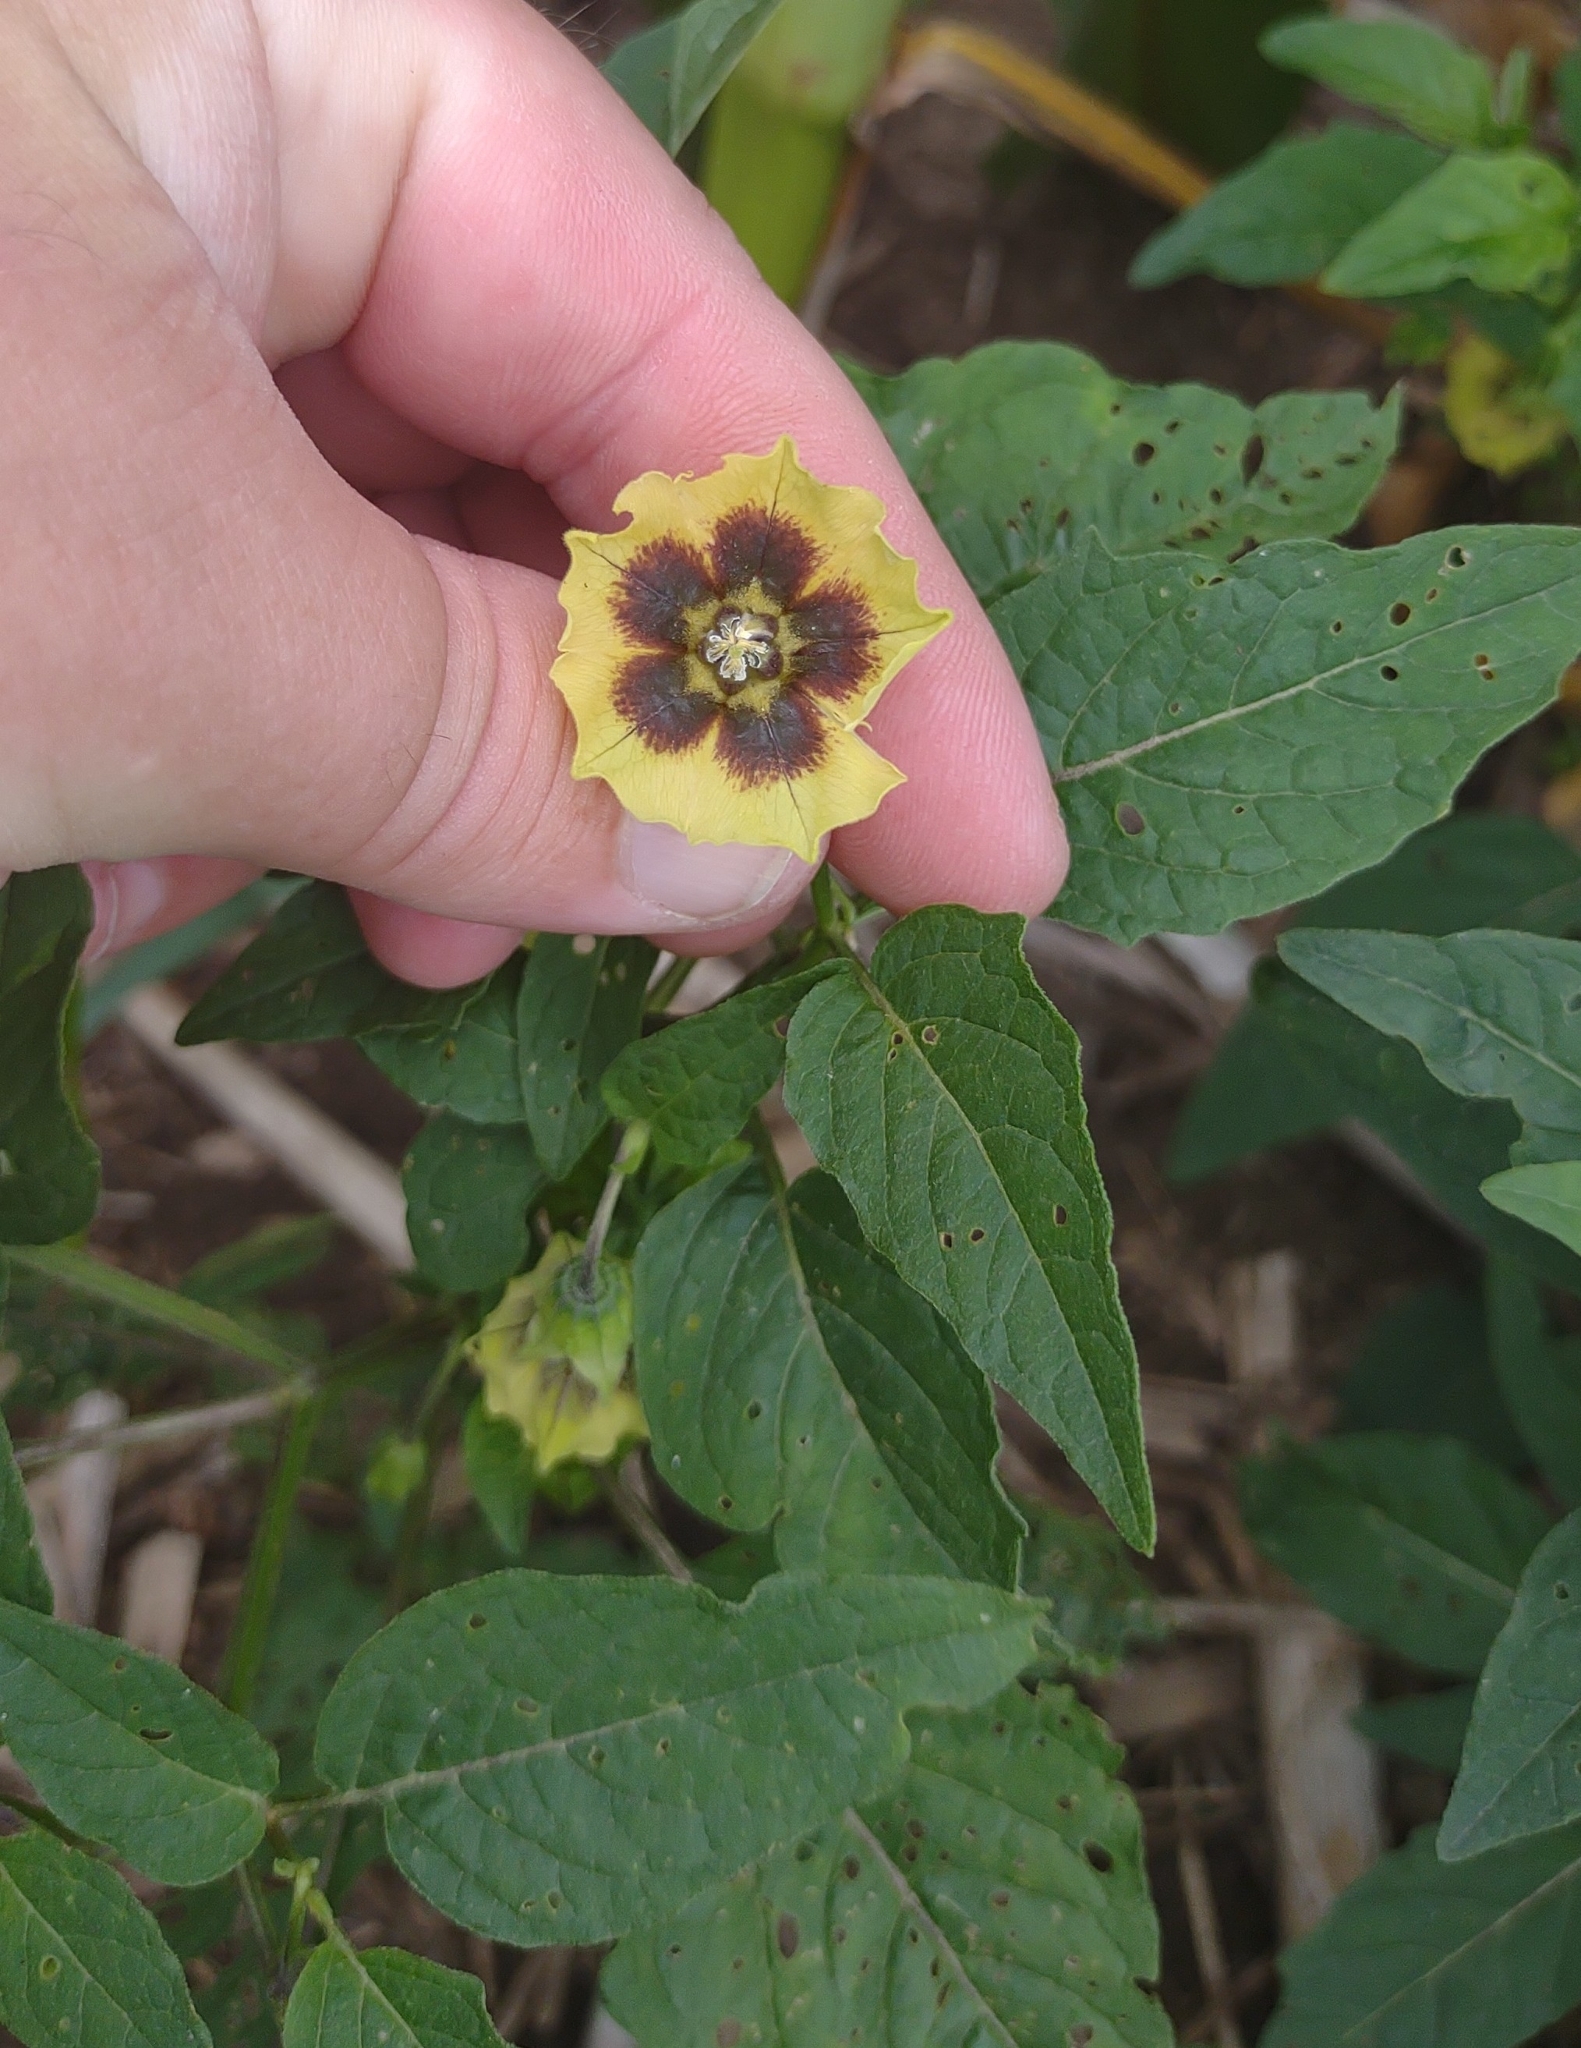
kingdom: Plantae
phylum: Tracheophyta
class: Magnoliopsida
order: Solanales
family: Solanaceae
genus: Physalis
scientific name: Physalis longifolia
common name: Common ground-cherry
